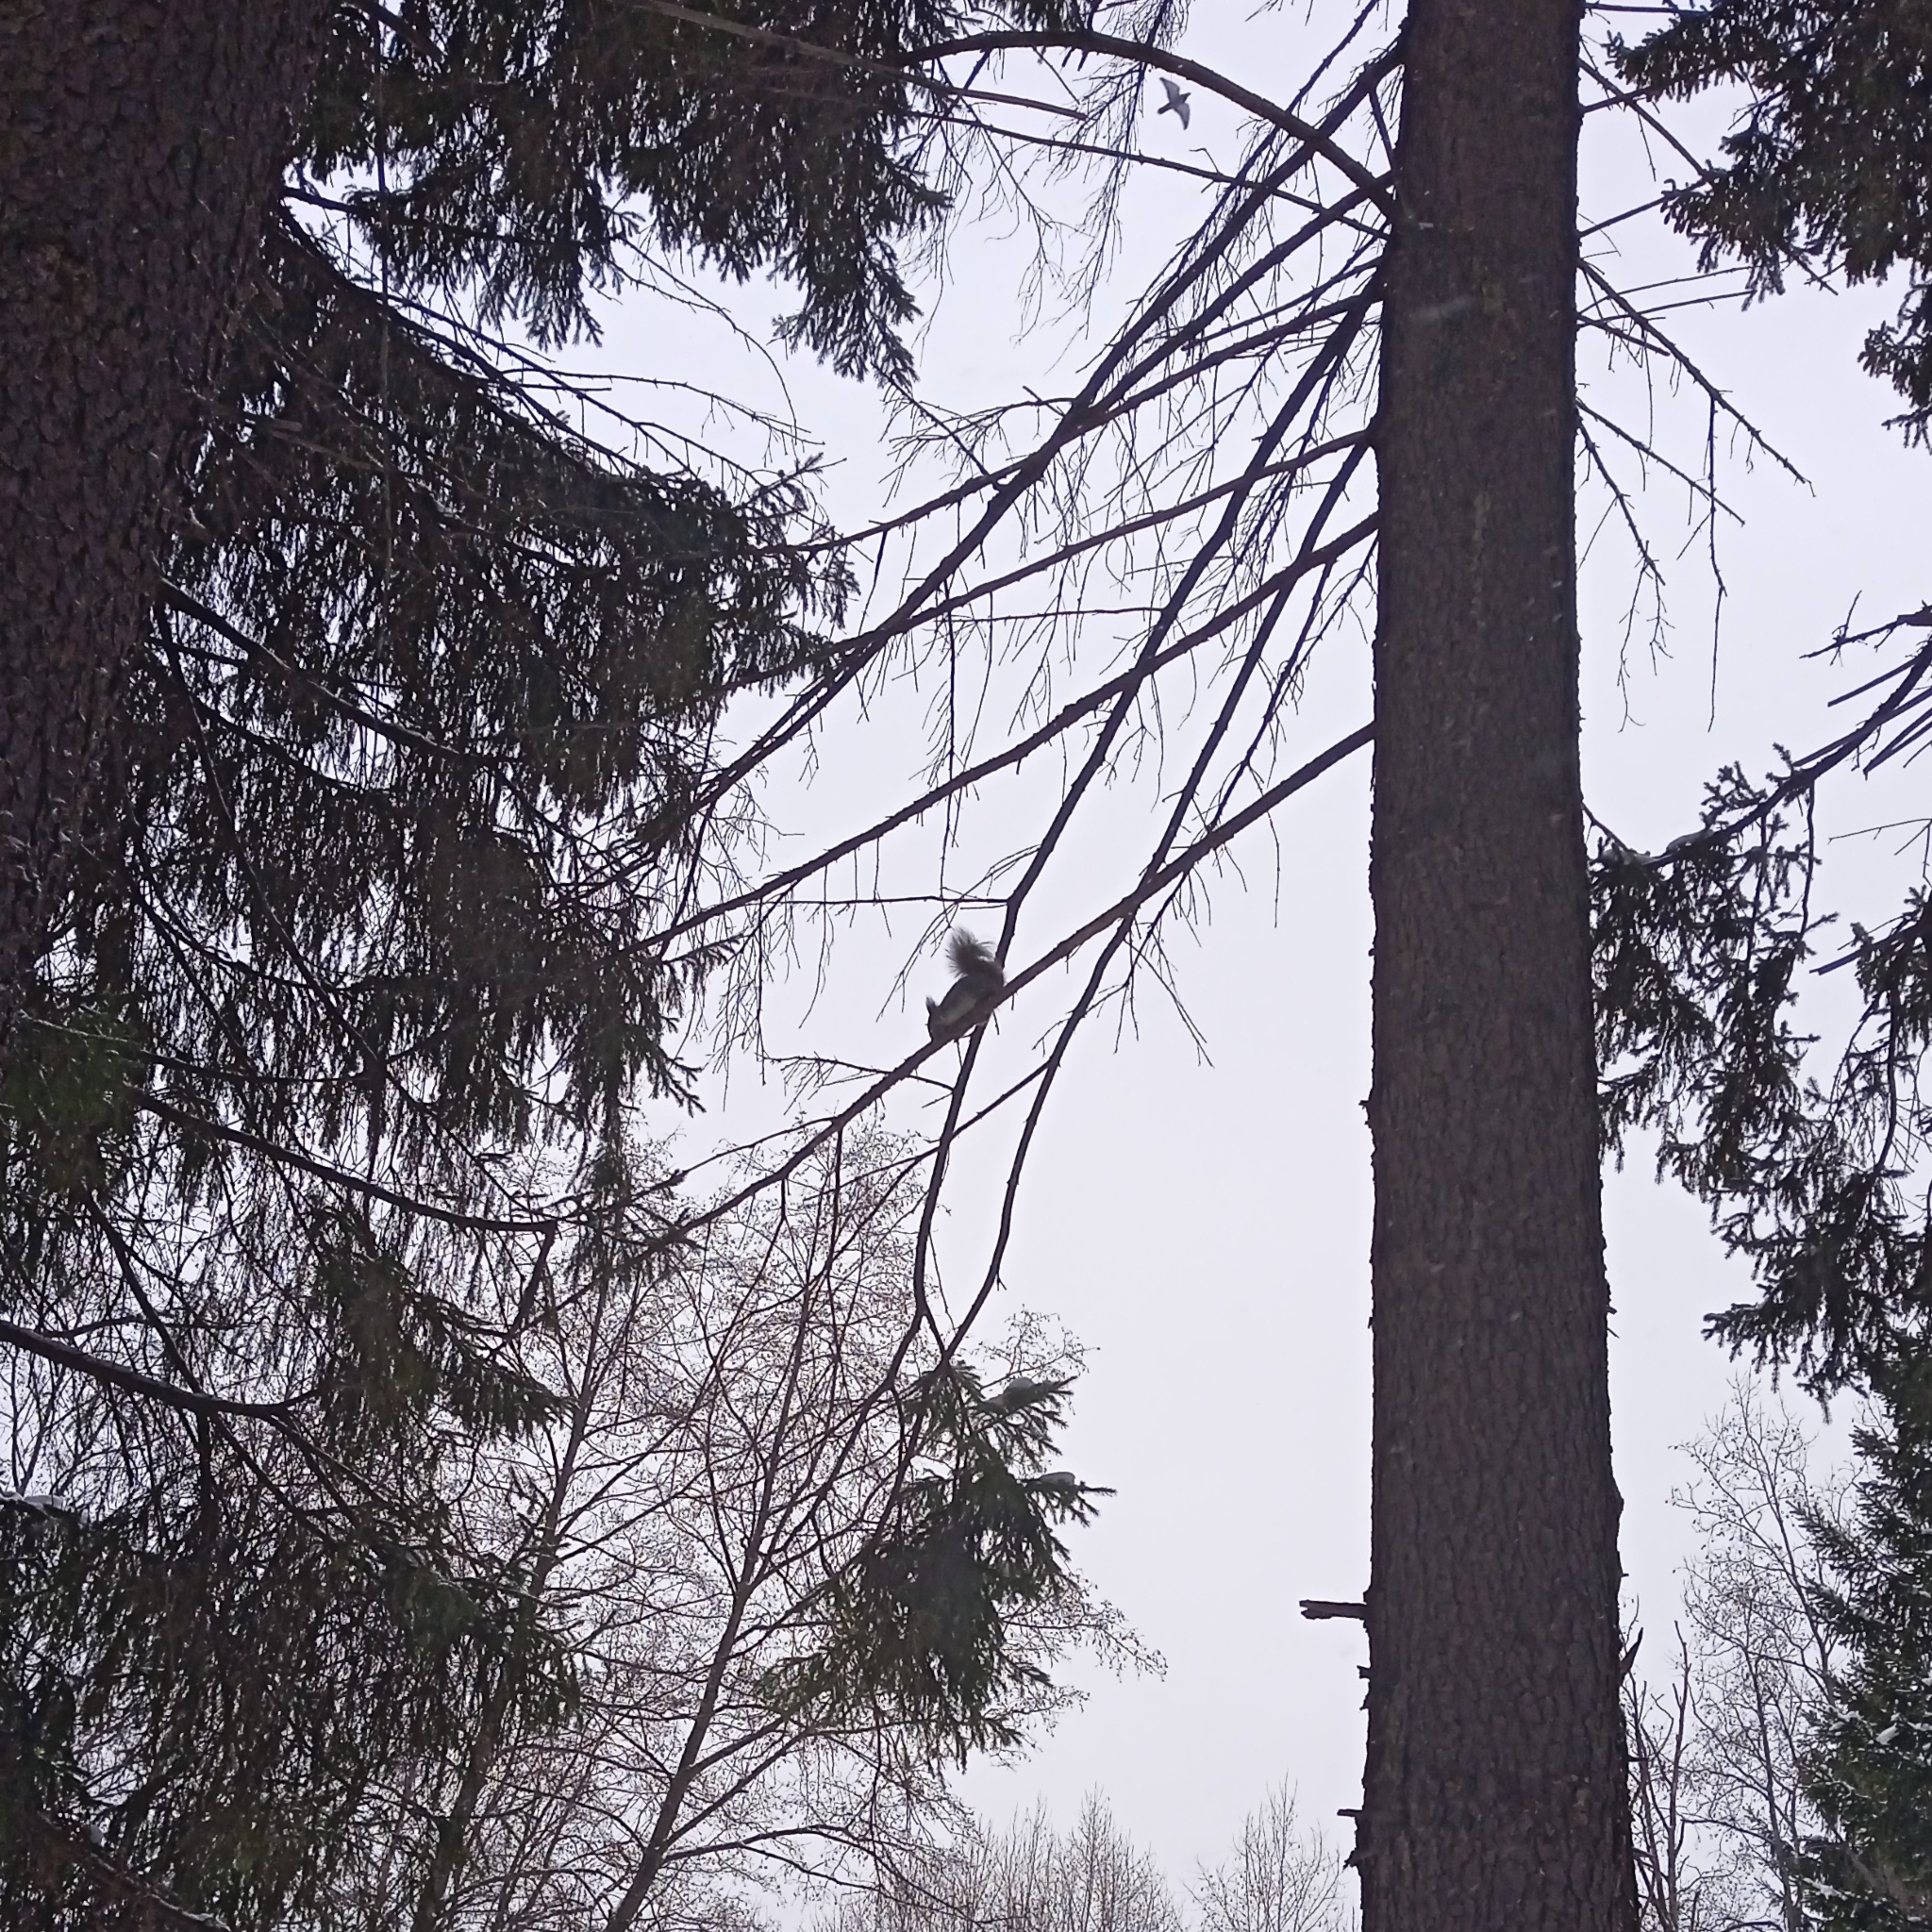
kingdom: Animalia
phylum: Chordata
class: Mammalia
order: Rodentia
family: Sciuridae
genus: Sciurus
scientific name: Sciurus vulgaris
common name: Eurasian red squirrel
